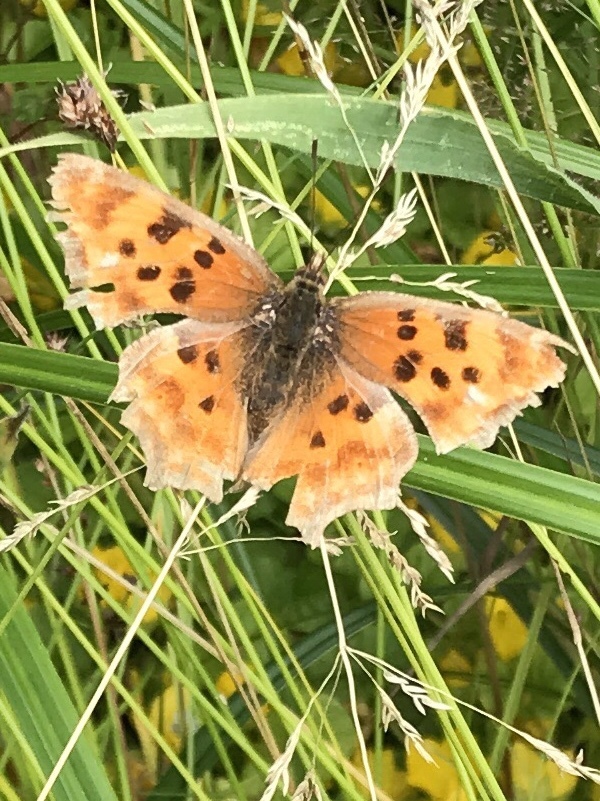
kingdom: Animalia
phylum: Arthropoda
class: Insecta
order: Lepidoptera
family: Nymphalidae
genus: Polygonia
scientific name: Polygonia satyrus
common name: Satyr angle wing
